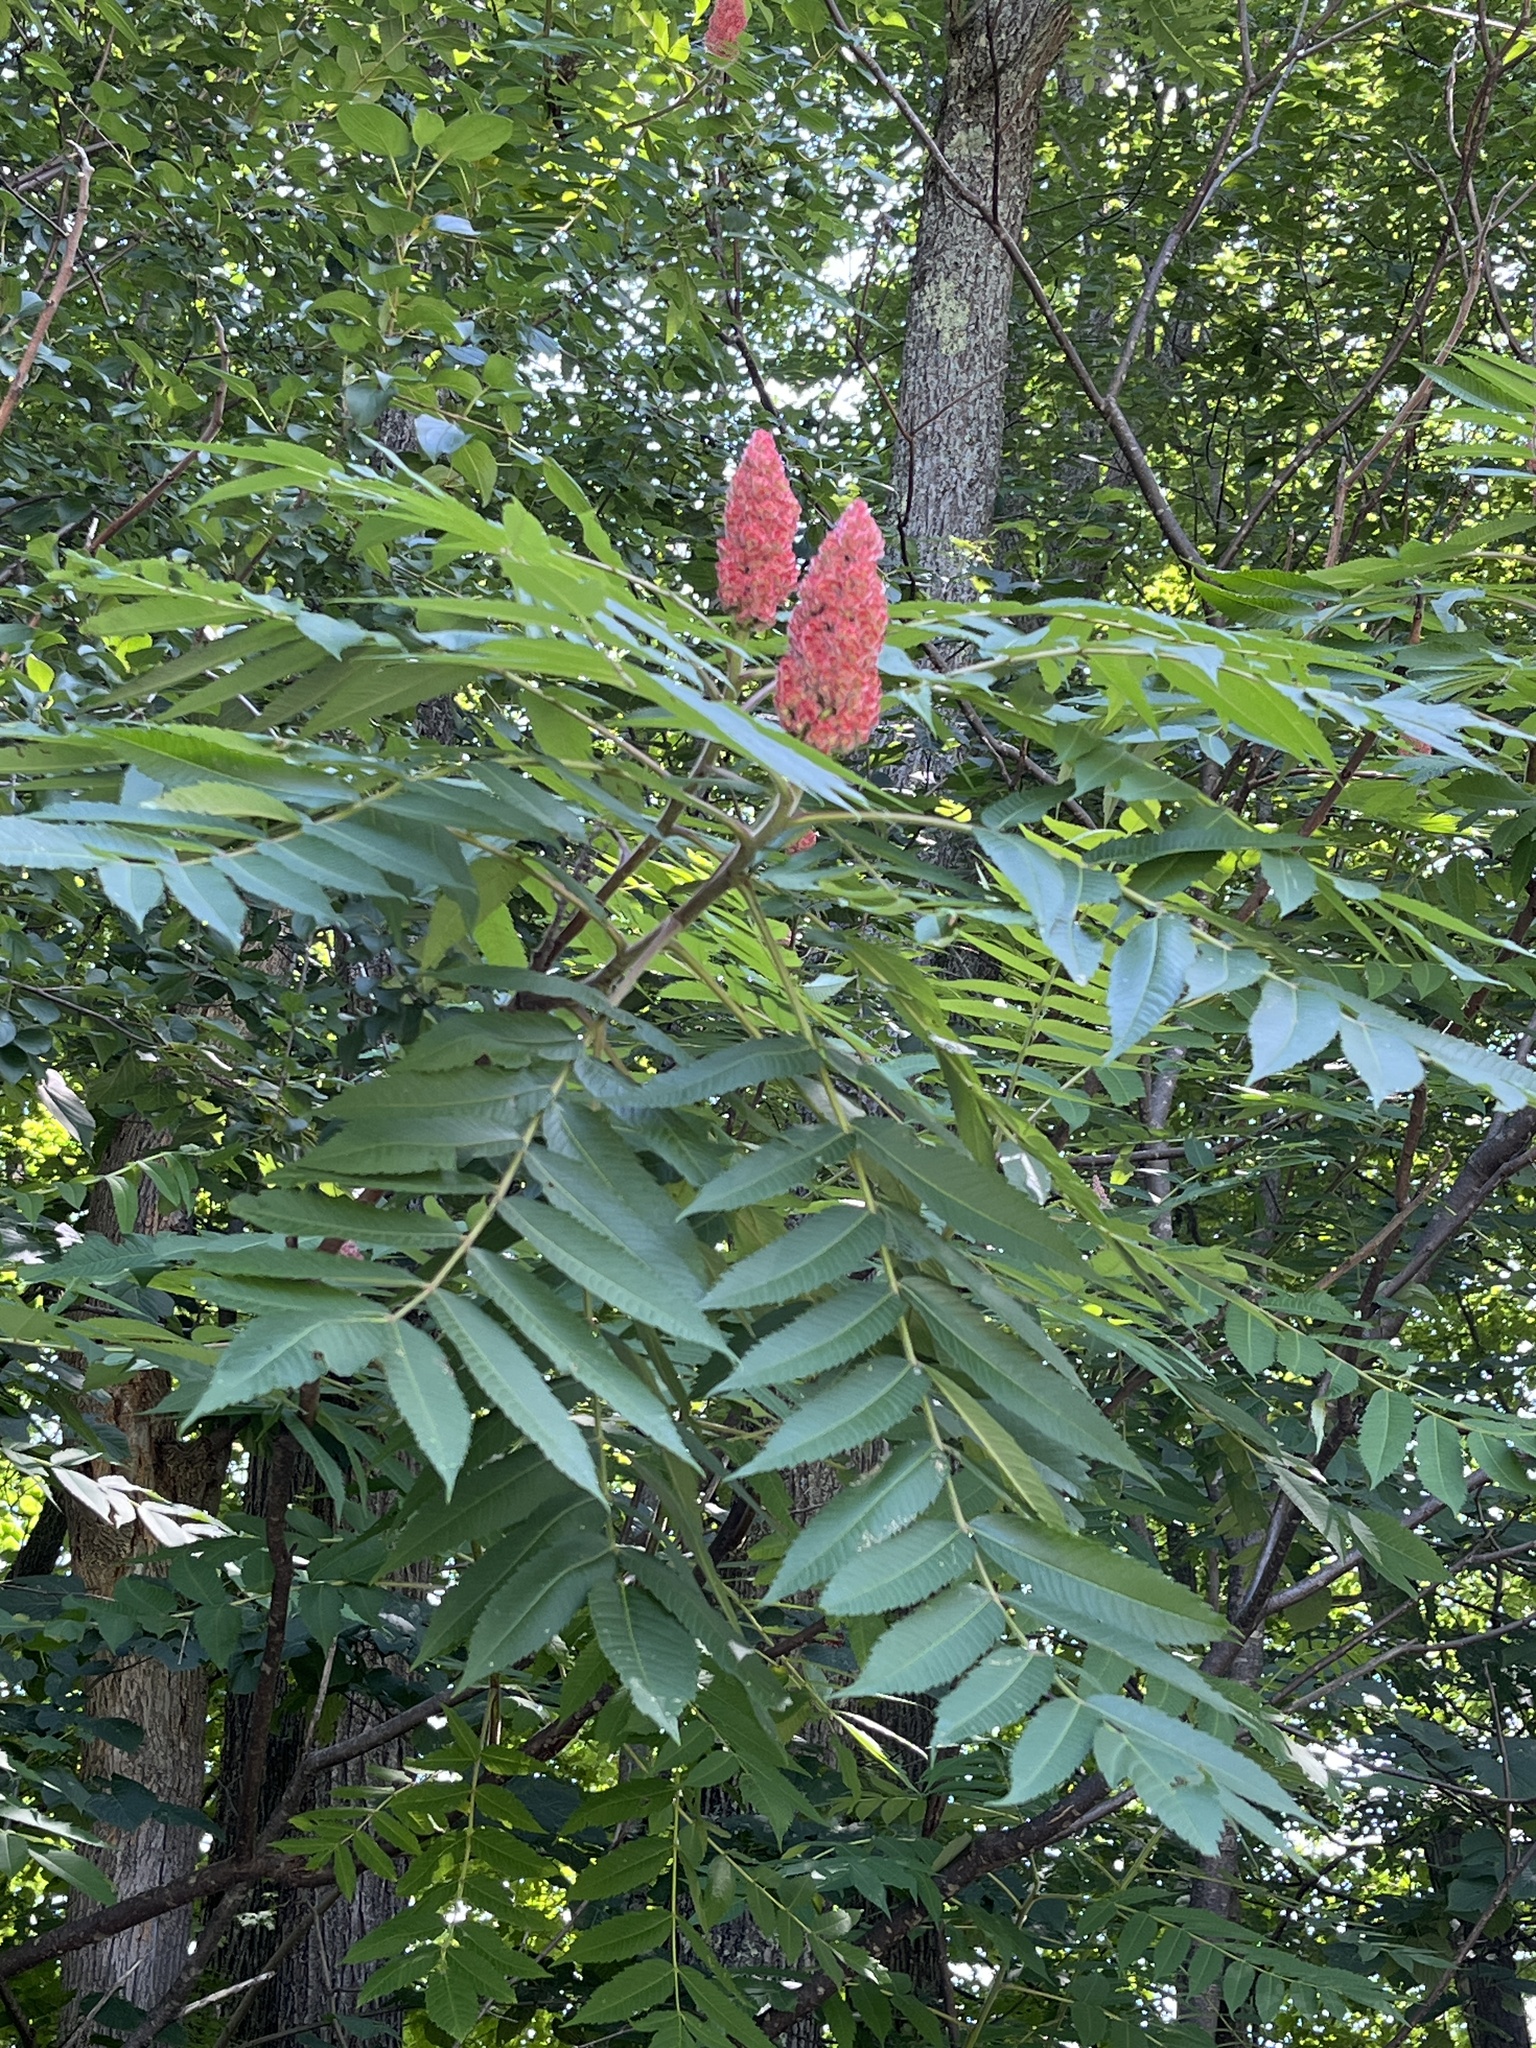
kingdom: Plantae
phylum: Tracheophyta
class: Magnoliopsida
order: Sapindales
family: Anacardiaceae
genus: Rhus
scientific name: Rhus typhina
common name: Staghorn sumac
